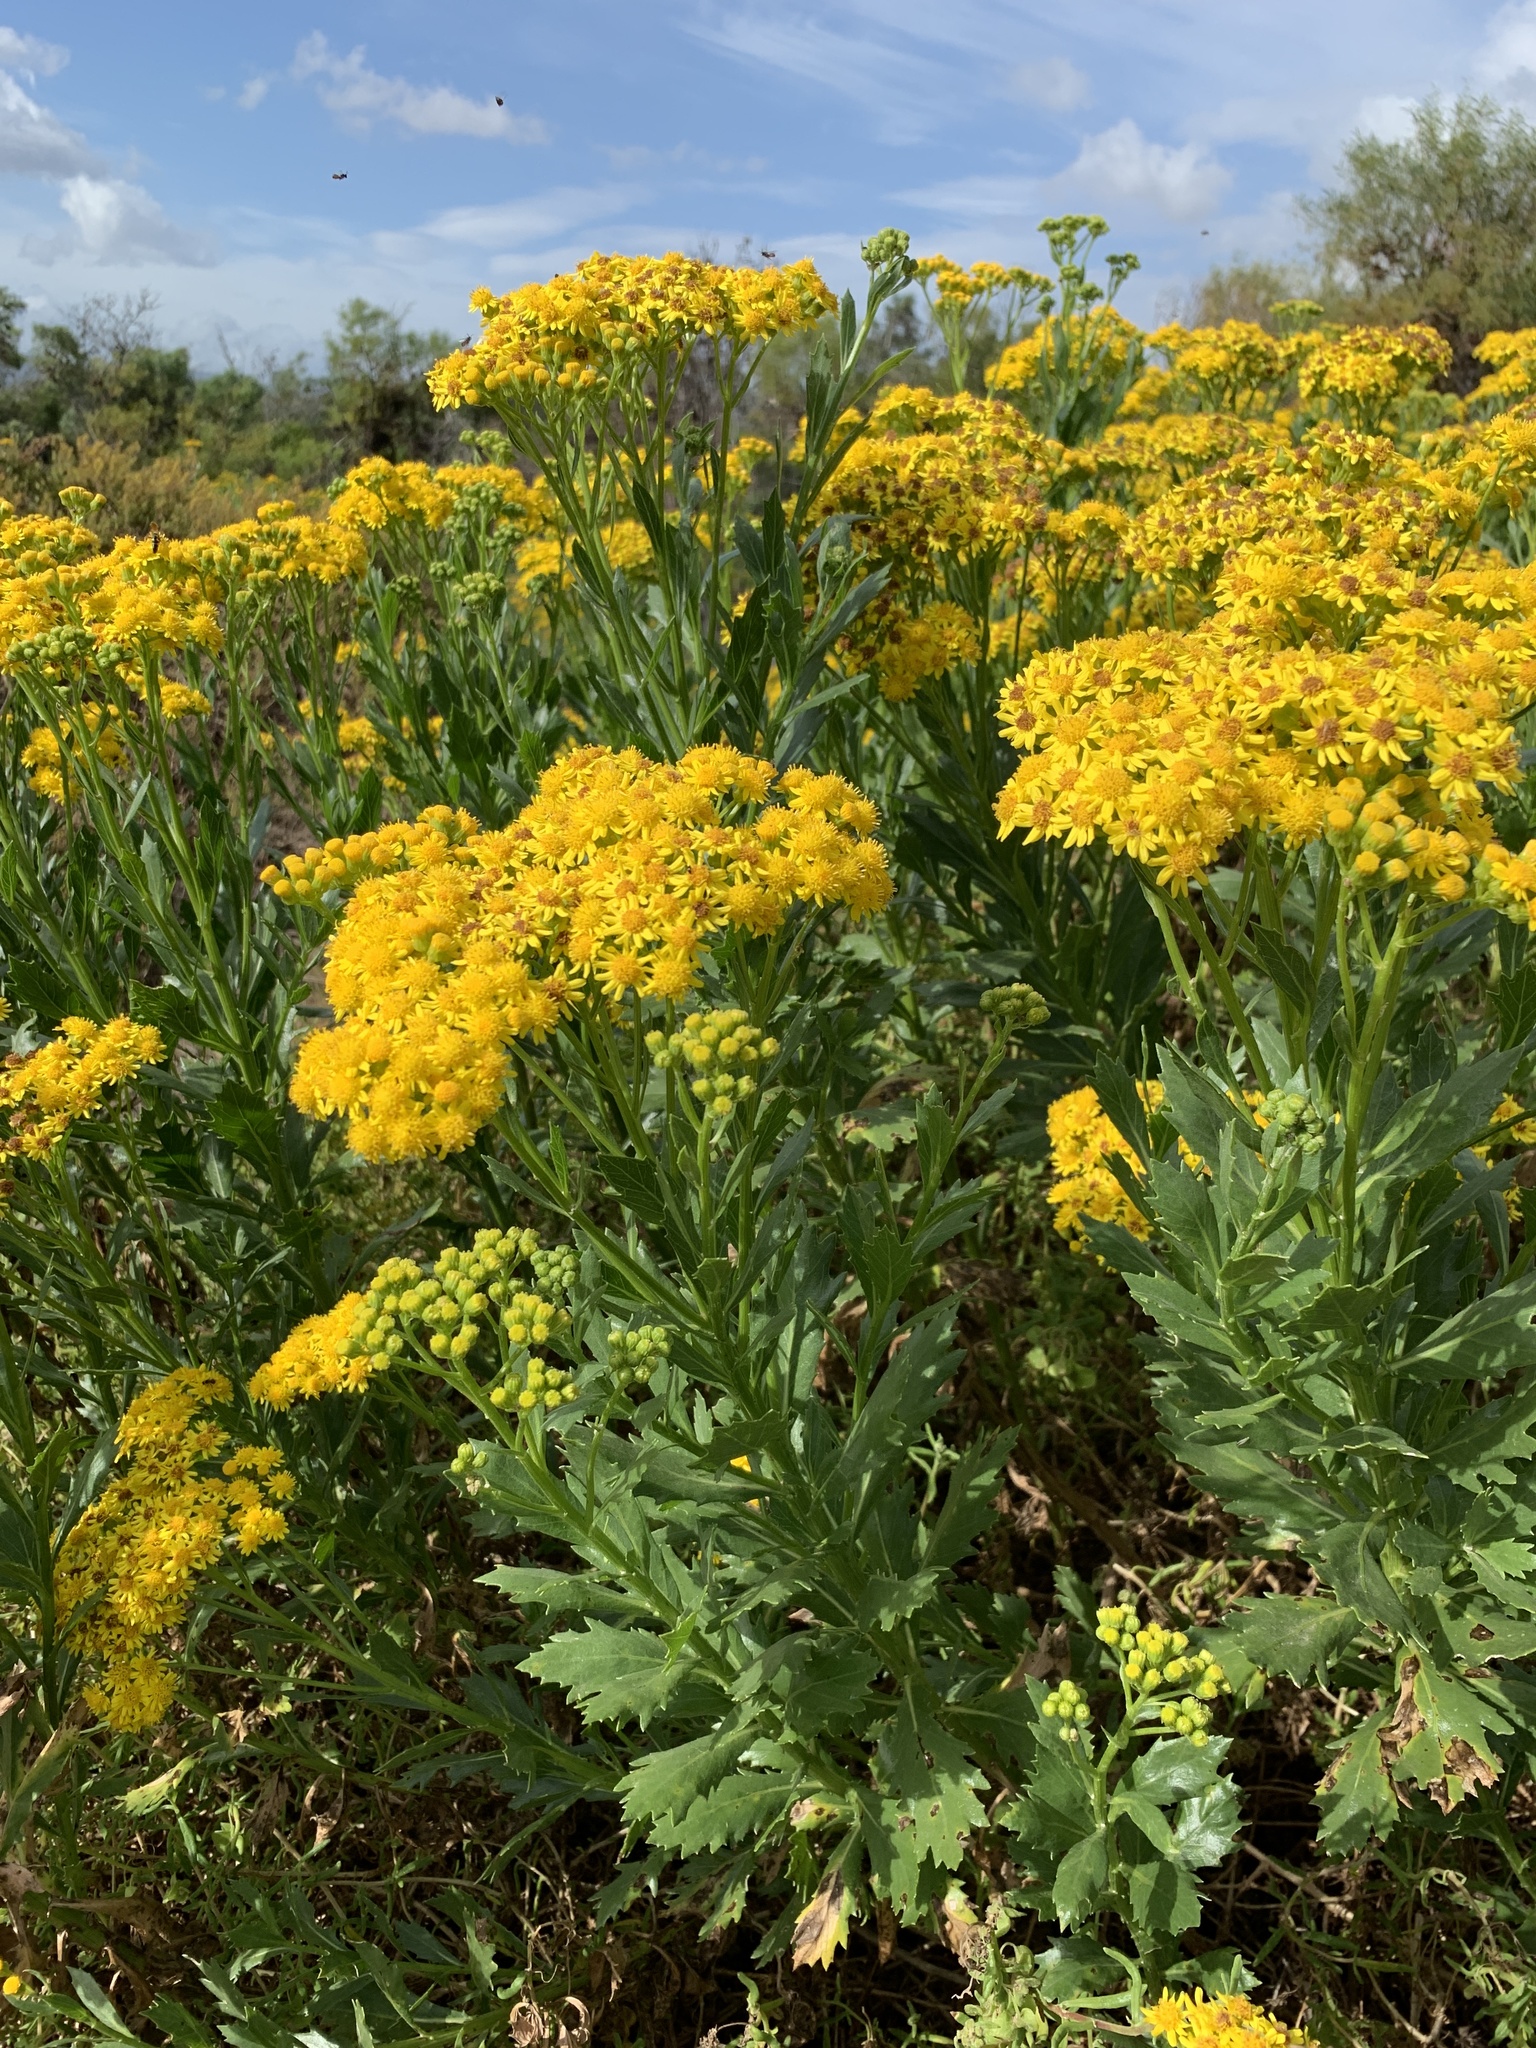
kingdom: Plantae
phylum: Tracheophyta
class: Magnoliopsida
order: Asterales
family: Asteraceae
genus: Senecio
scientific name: Senecio halimifolius
